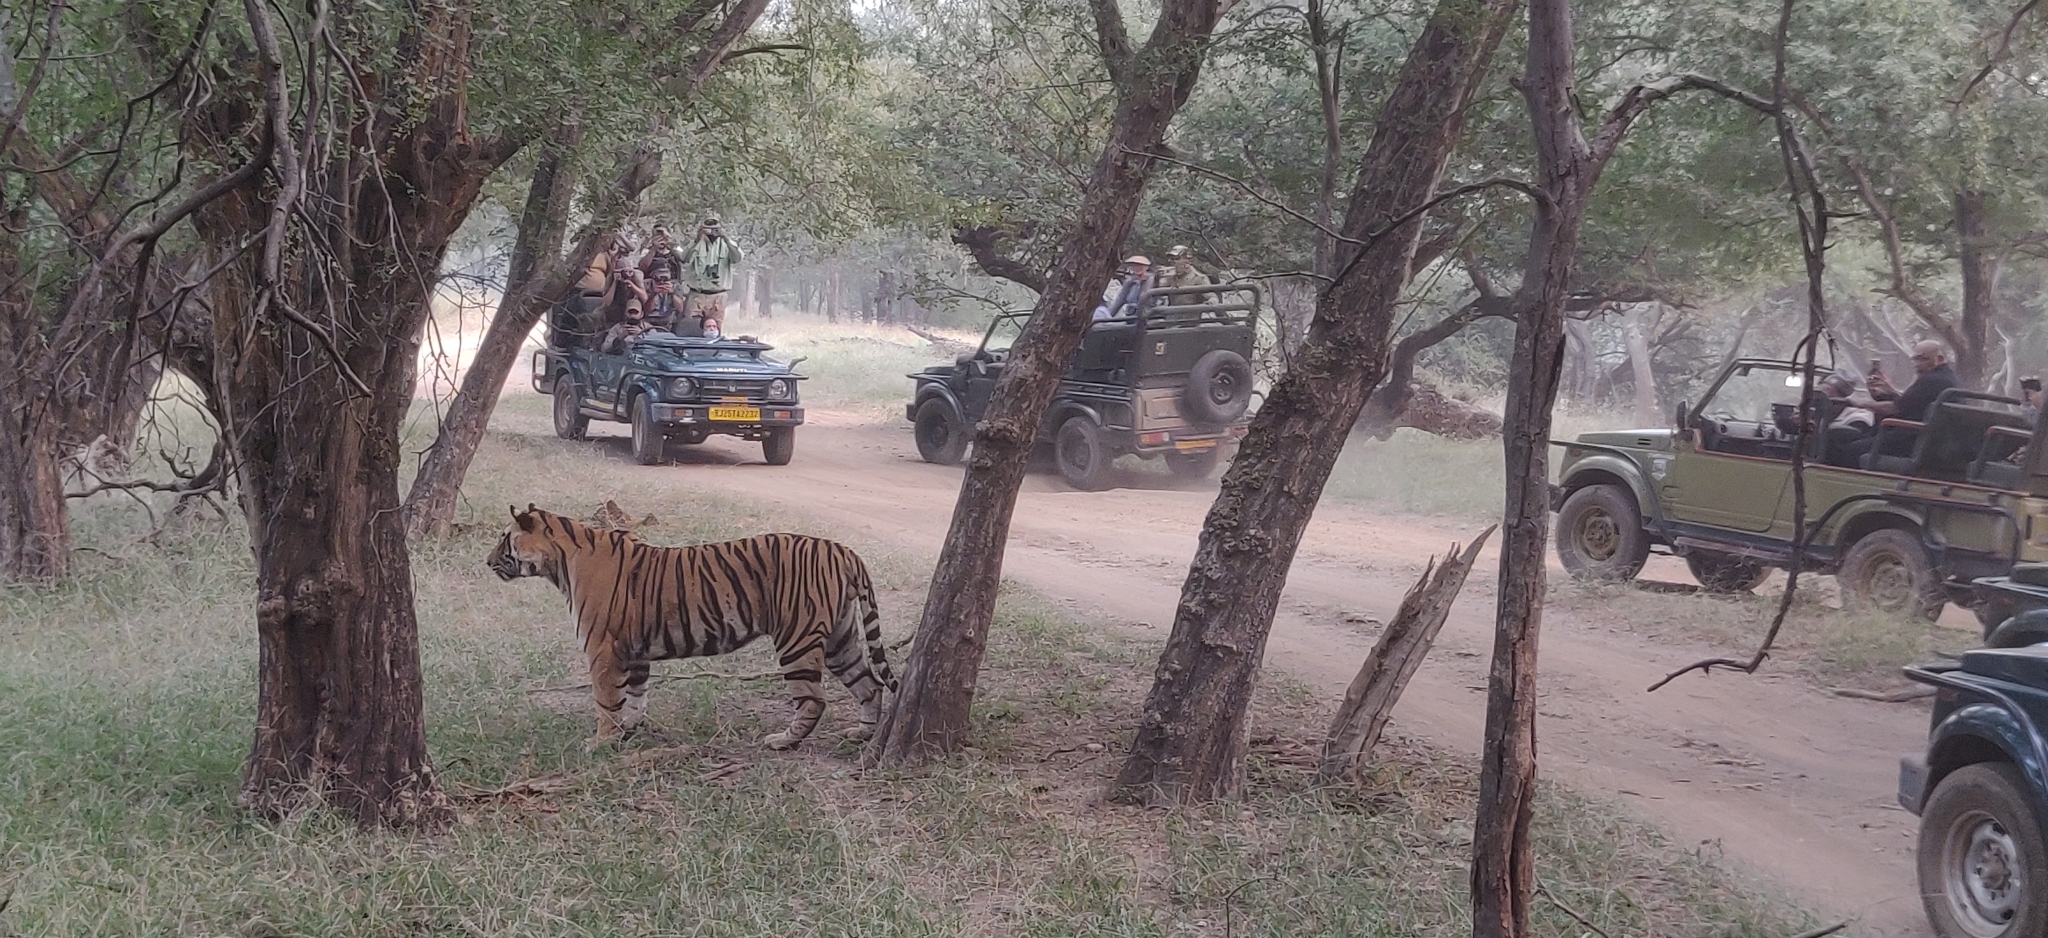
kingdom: Animalia
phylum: Chordata
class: Mammalia
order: Carnivora
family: Felidae
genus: Panthera
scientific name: Panthera tigris
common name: Tiger
